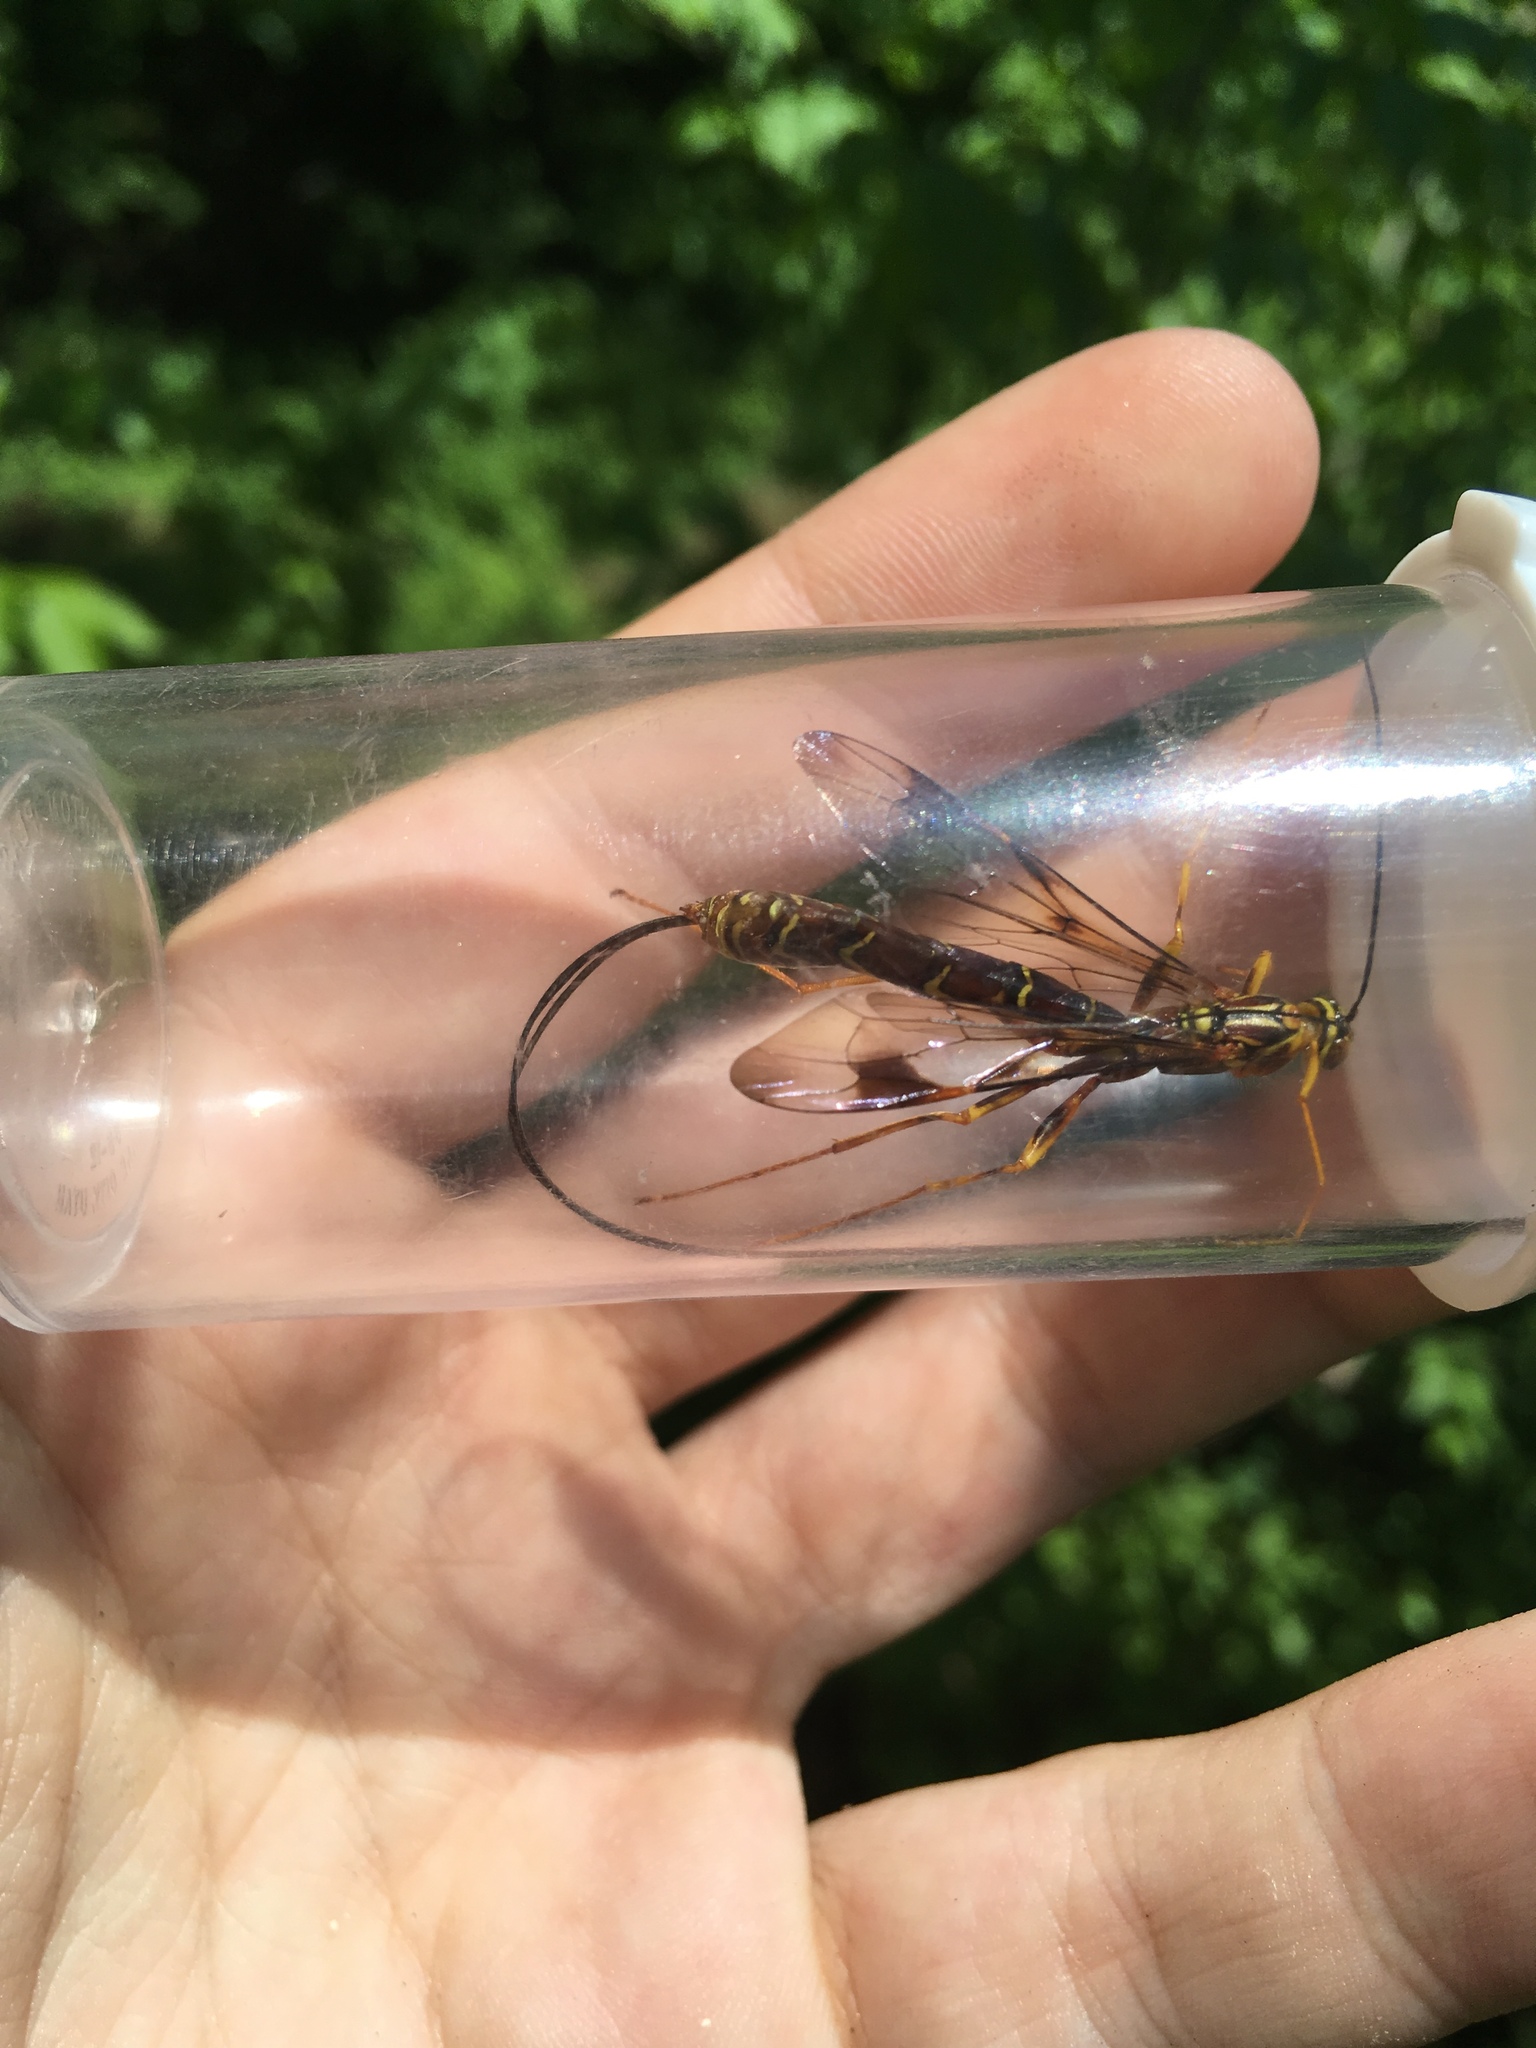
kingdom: Animalia
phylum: Arthropoda
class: Insecta
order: Hymenoptera
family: Ichneumonidae
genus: Megarhyssa
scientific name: Megarhyssa macrura
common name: Long-tailed giant ichneumonid wasp
